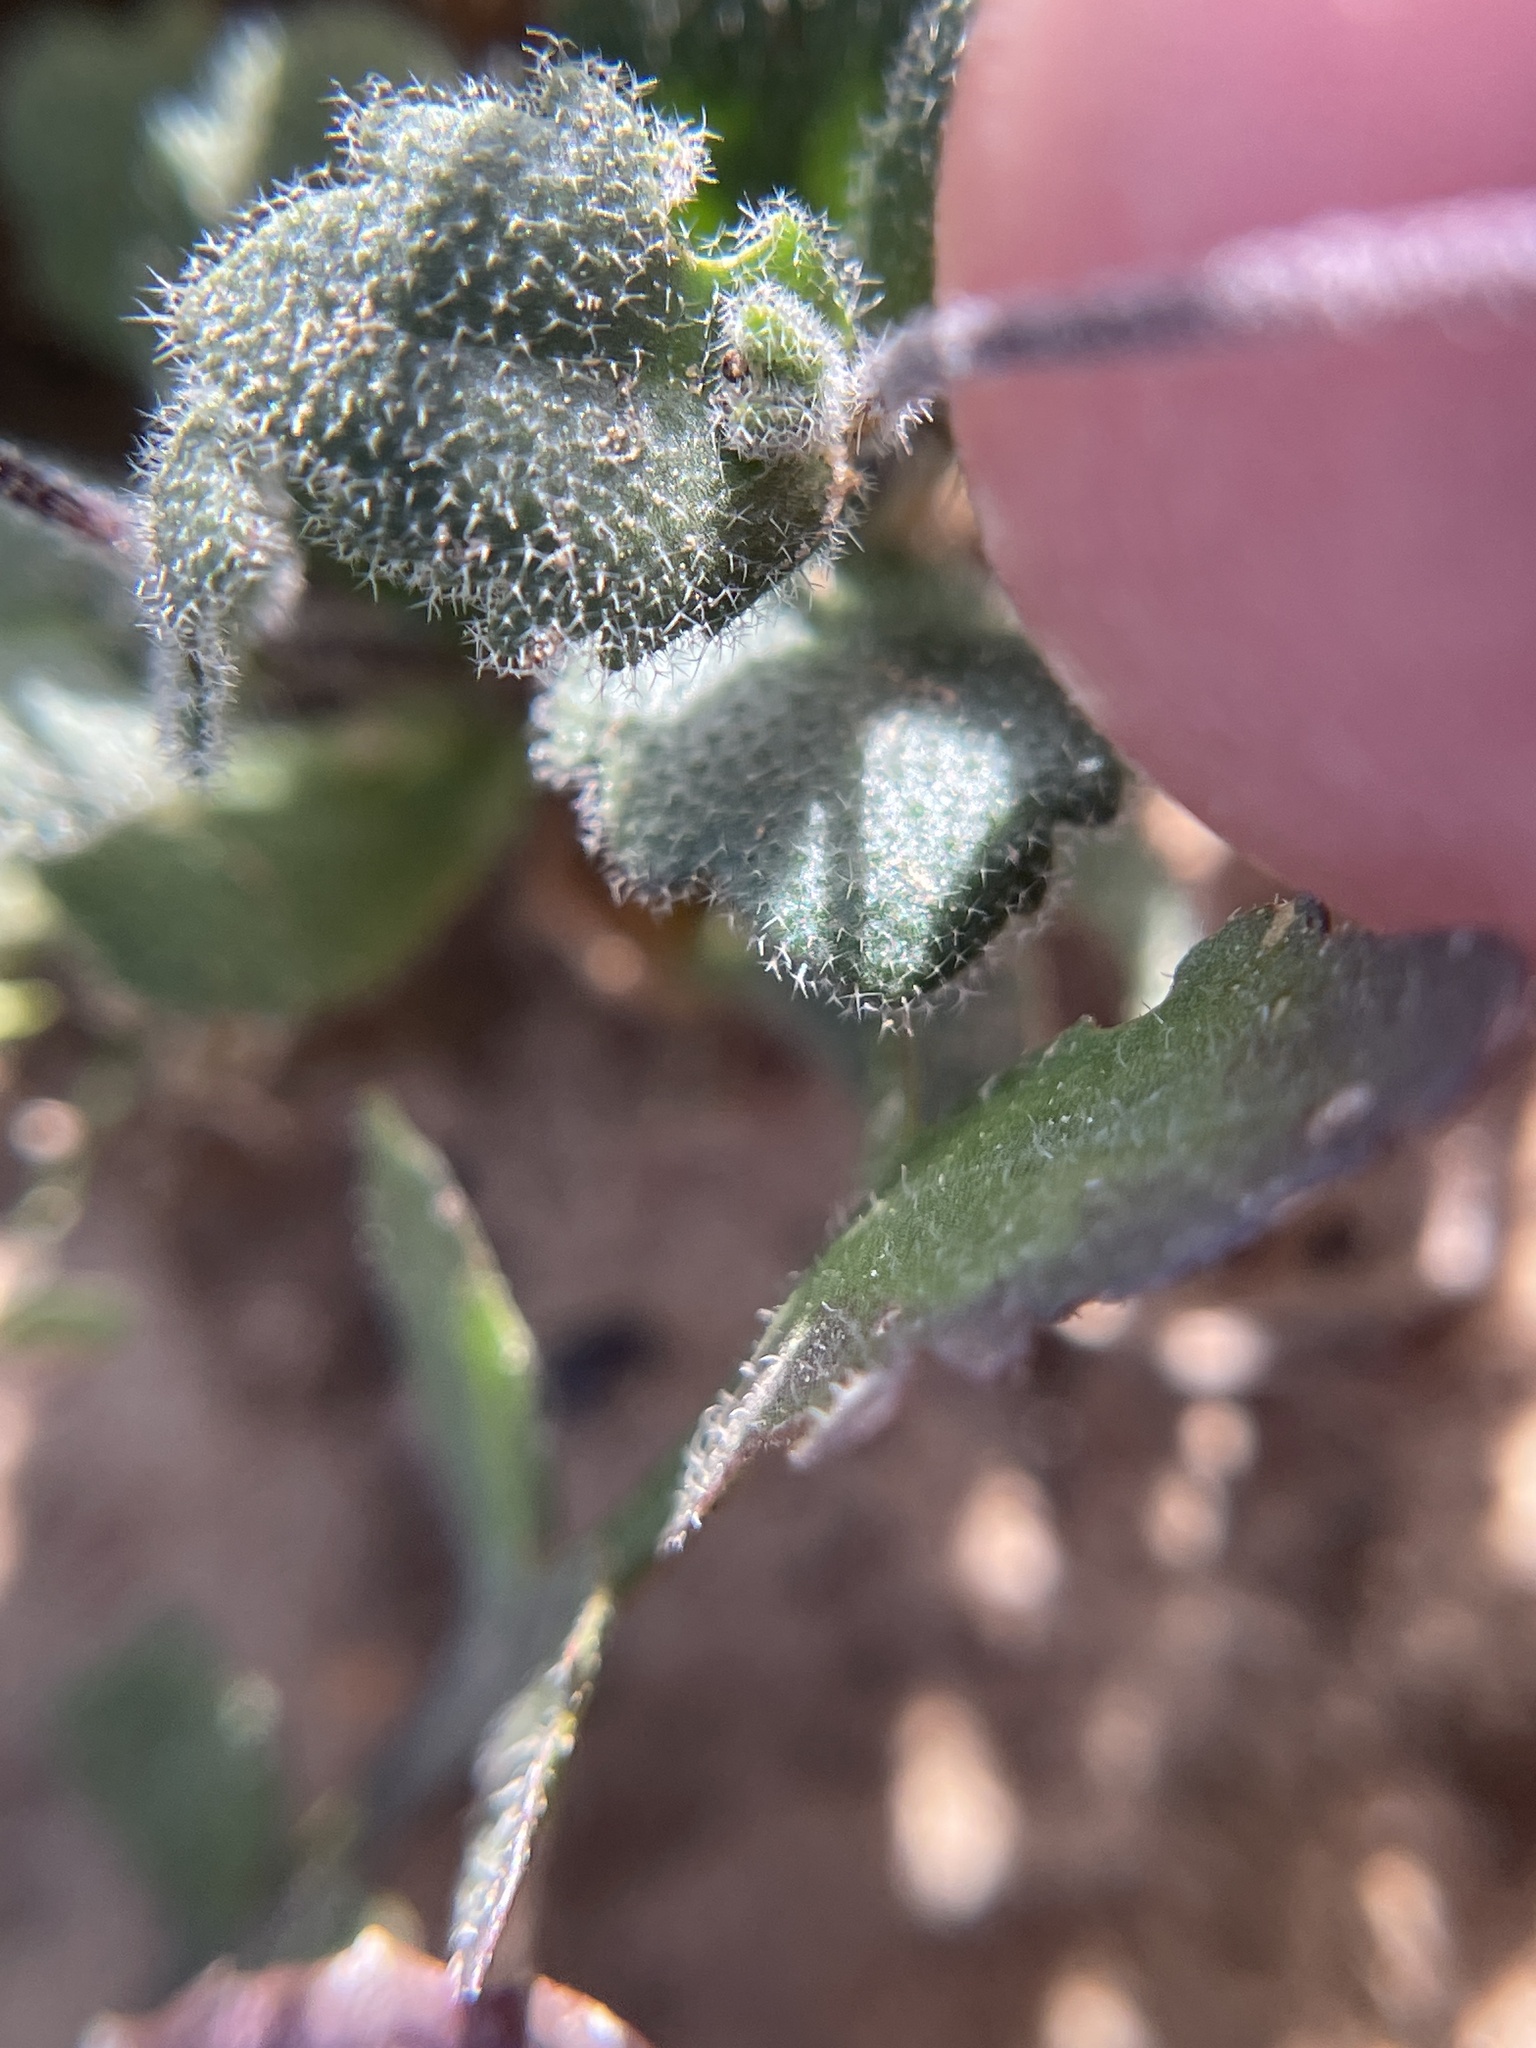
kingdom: Plantae
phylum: Tracheophyta
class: Magnoliopsida
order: Brassicales
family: Brassicaceae
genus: Tomostima
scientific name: Tomostima cuneifolia
